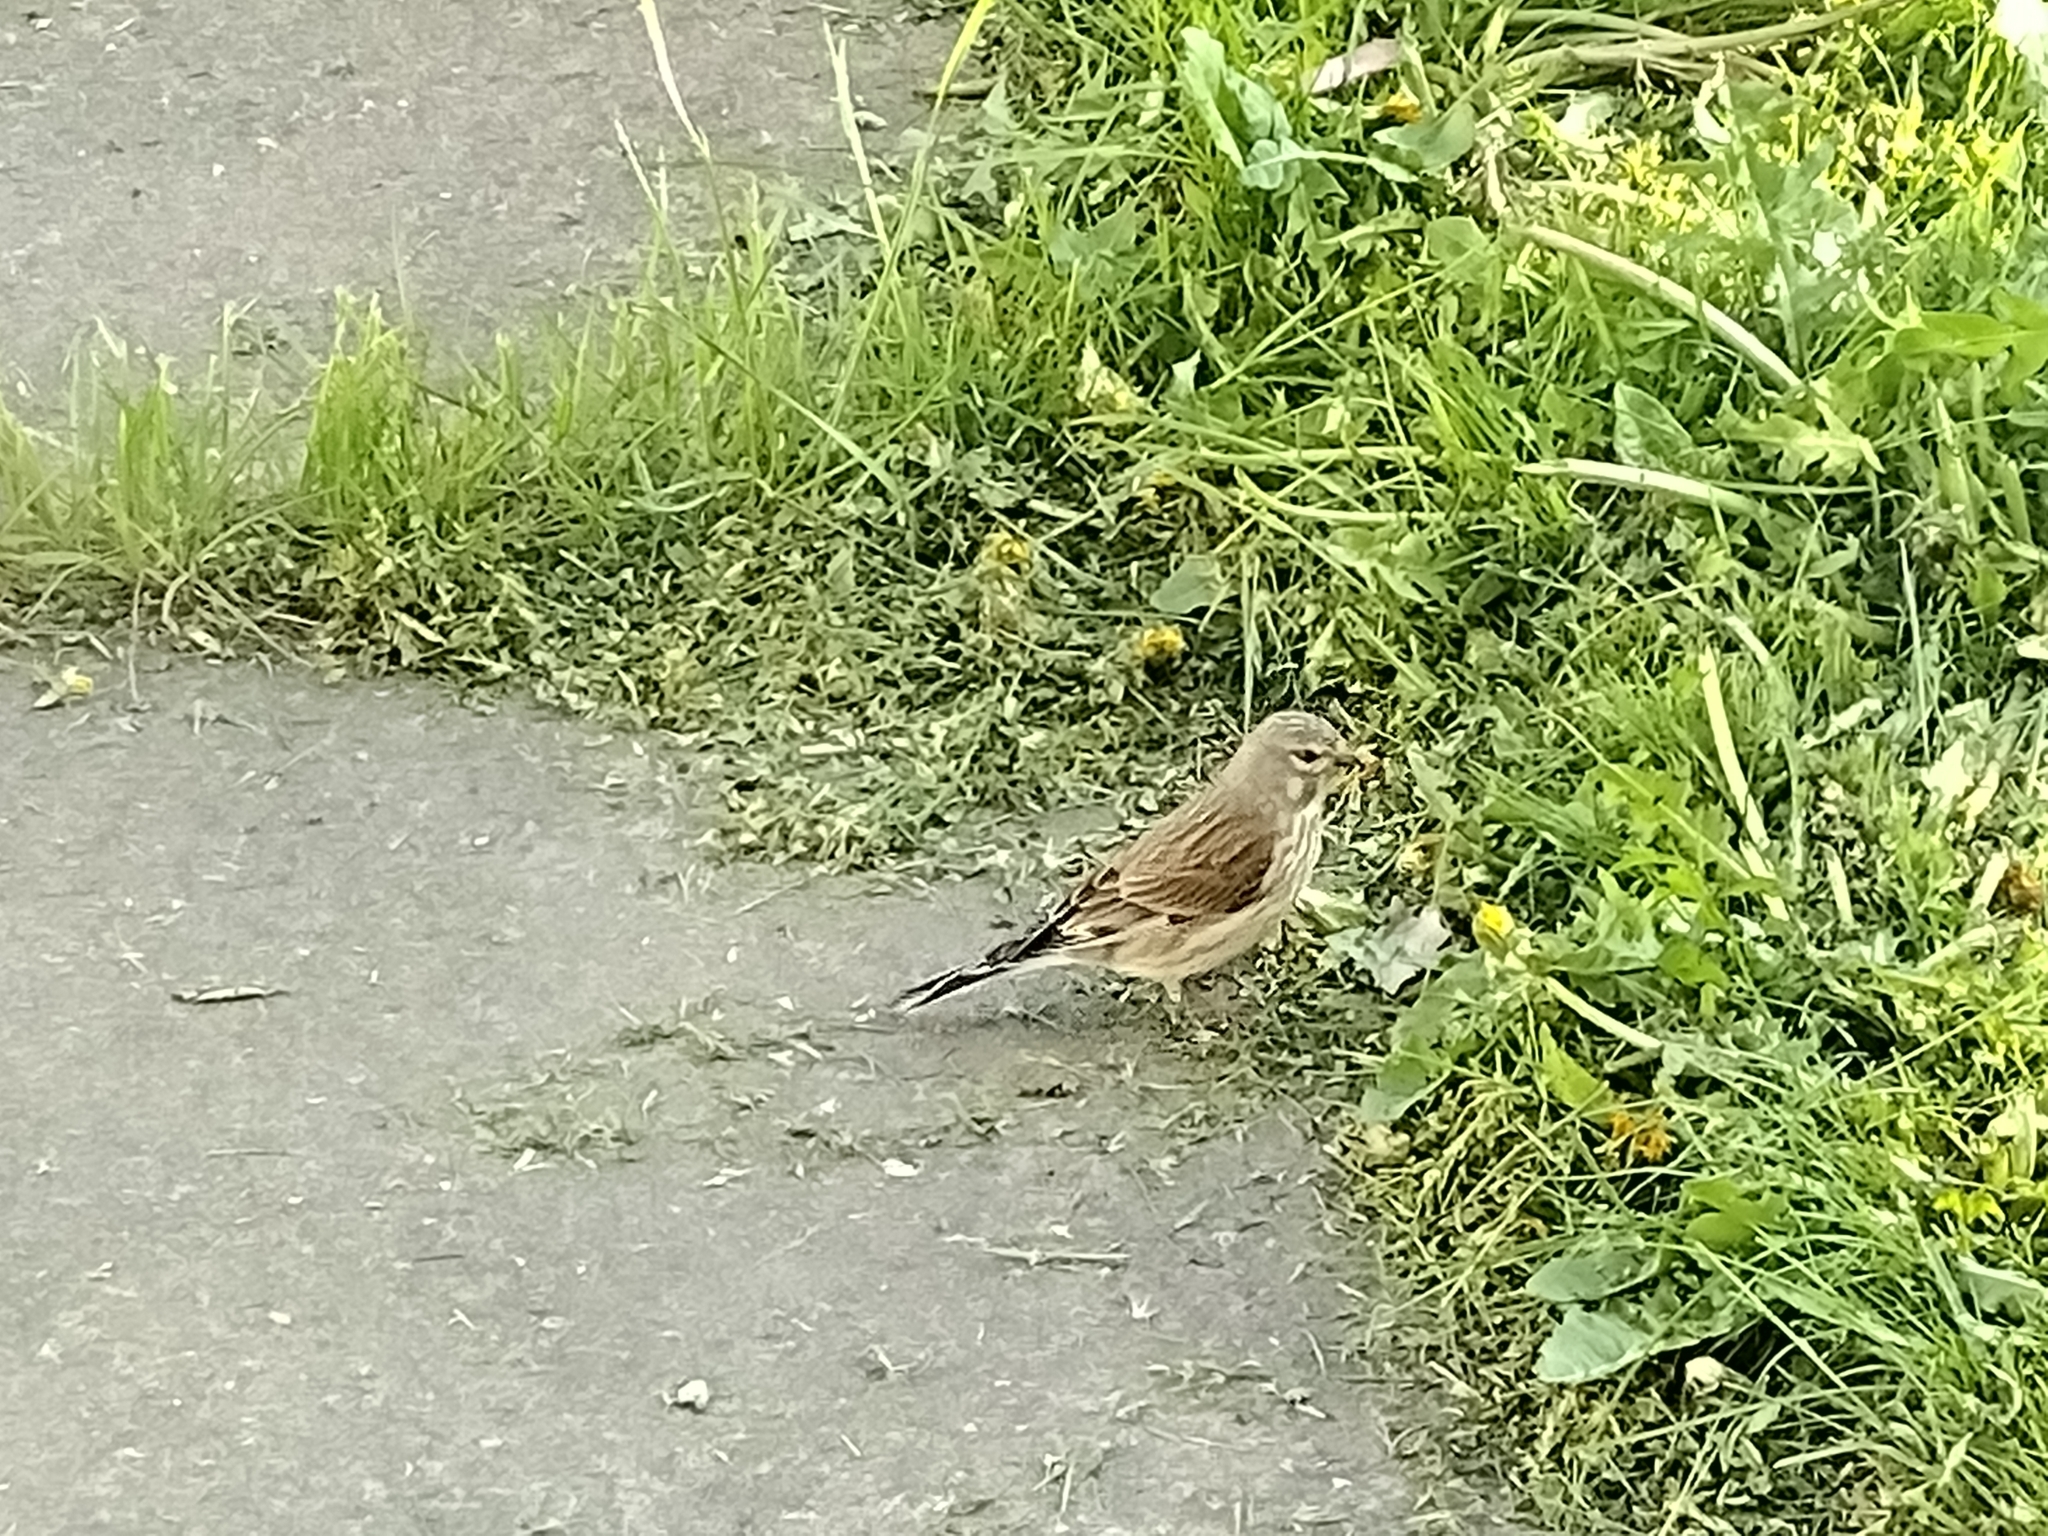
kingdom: Animalia
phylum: Chordata
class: Aves
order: Passeriformes
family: Fringillidae
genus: Linaria
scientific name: Linaria cannabina
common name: Common linnet
